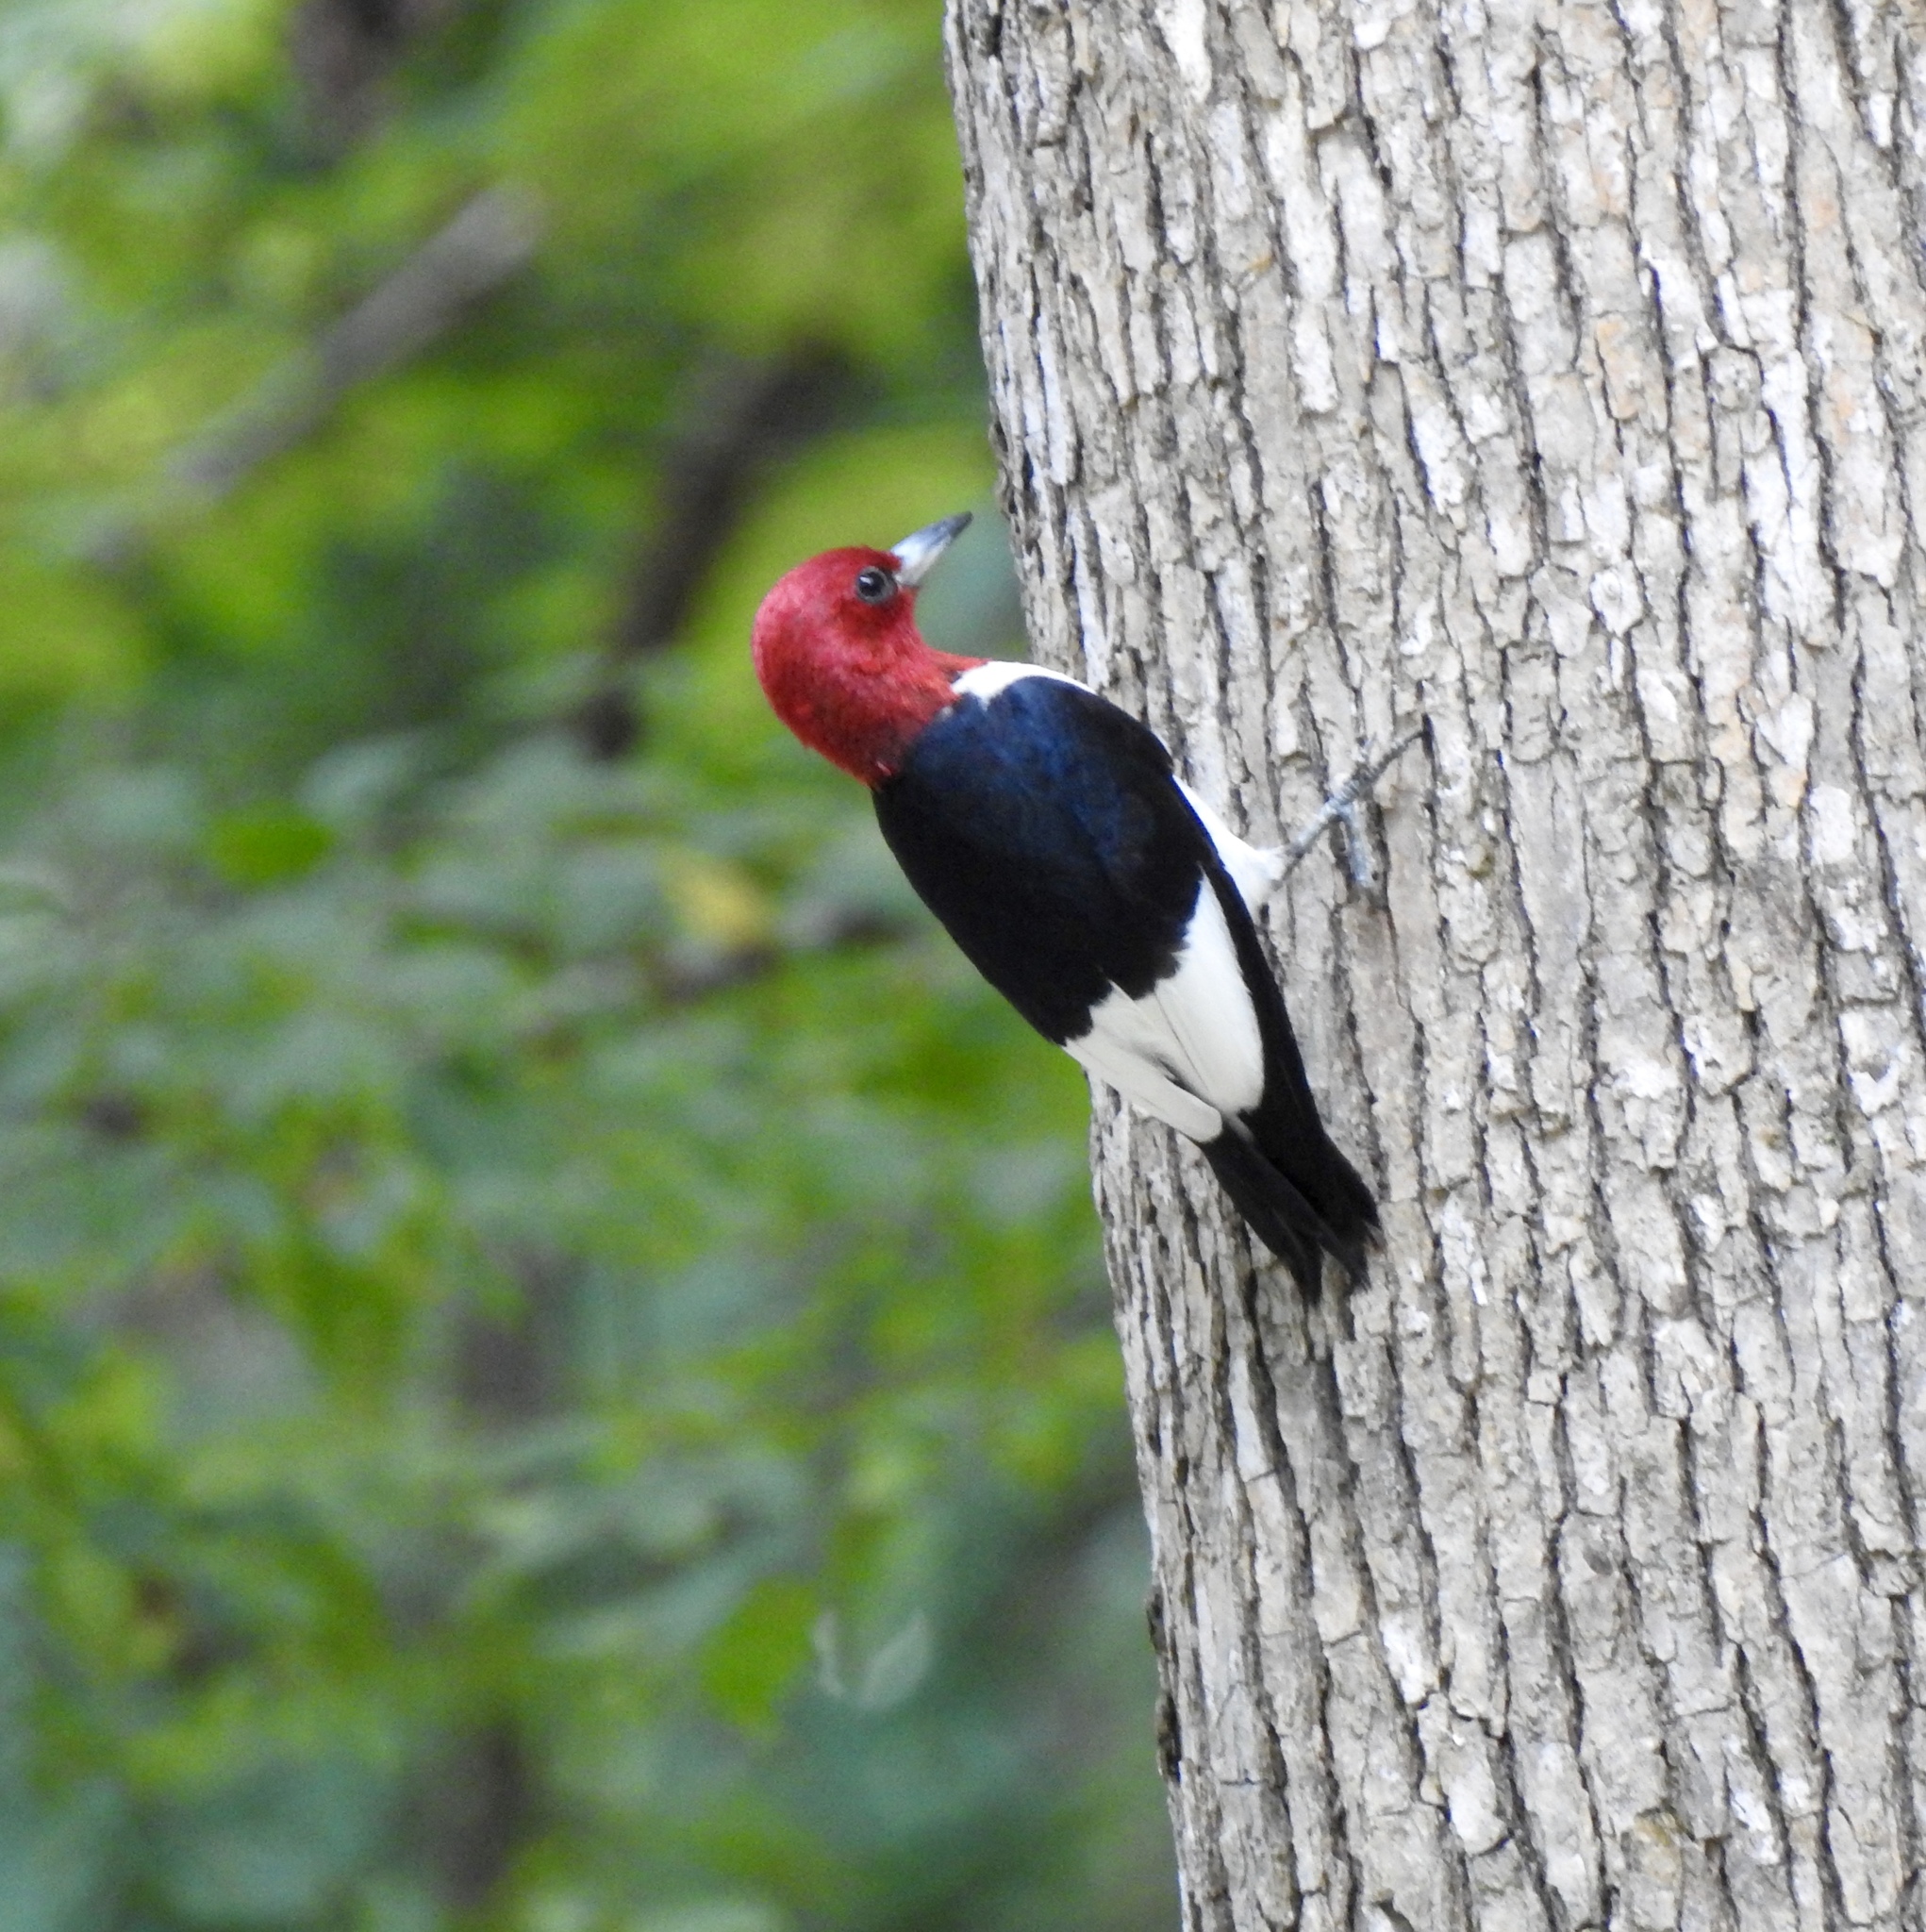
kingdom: Animalia
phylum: Chordata
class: Aves
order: Piciformes
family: Picidae
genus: Melanerpes
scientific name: Melanerpes erythrocephalus
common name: Red-headed woodpecker
